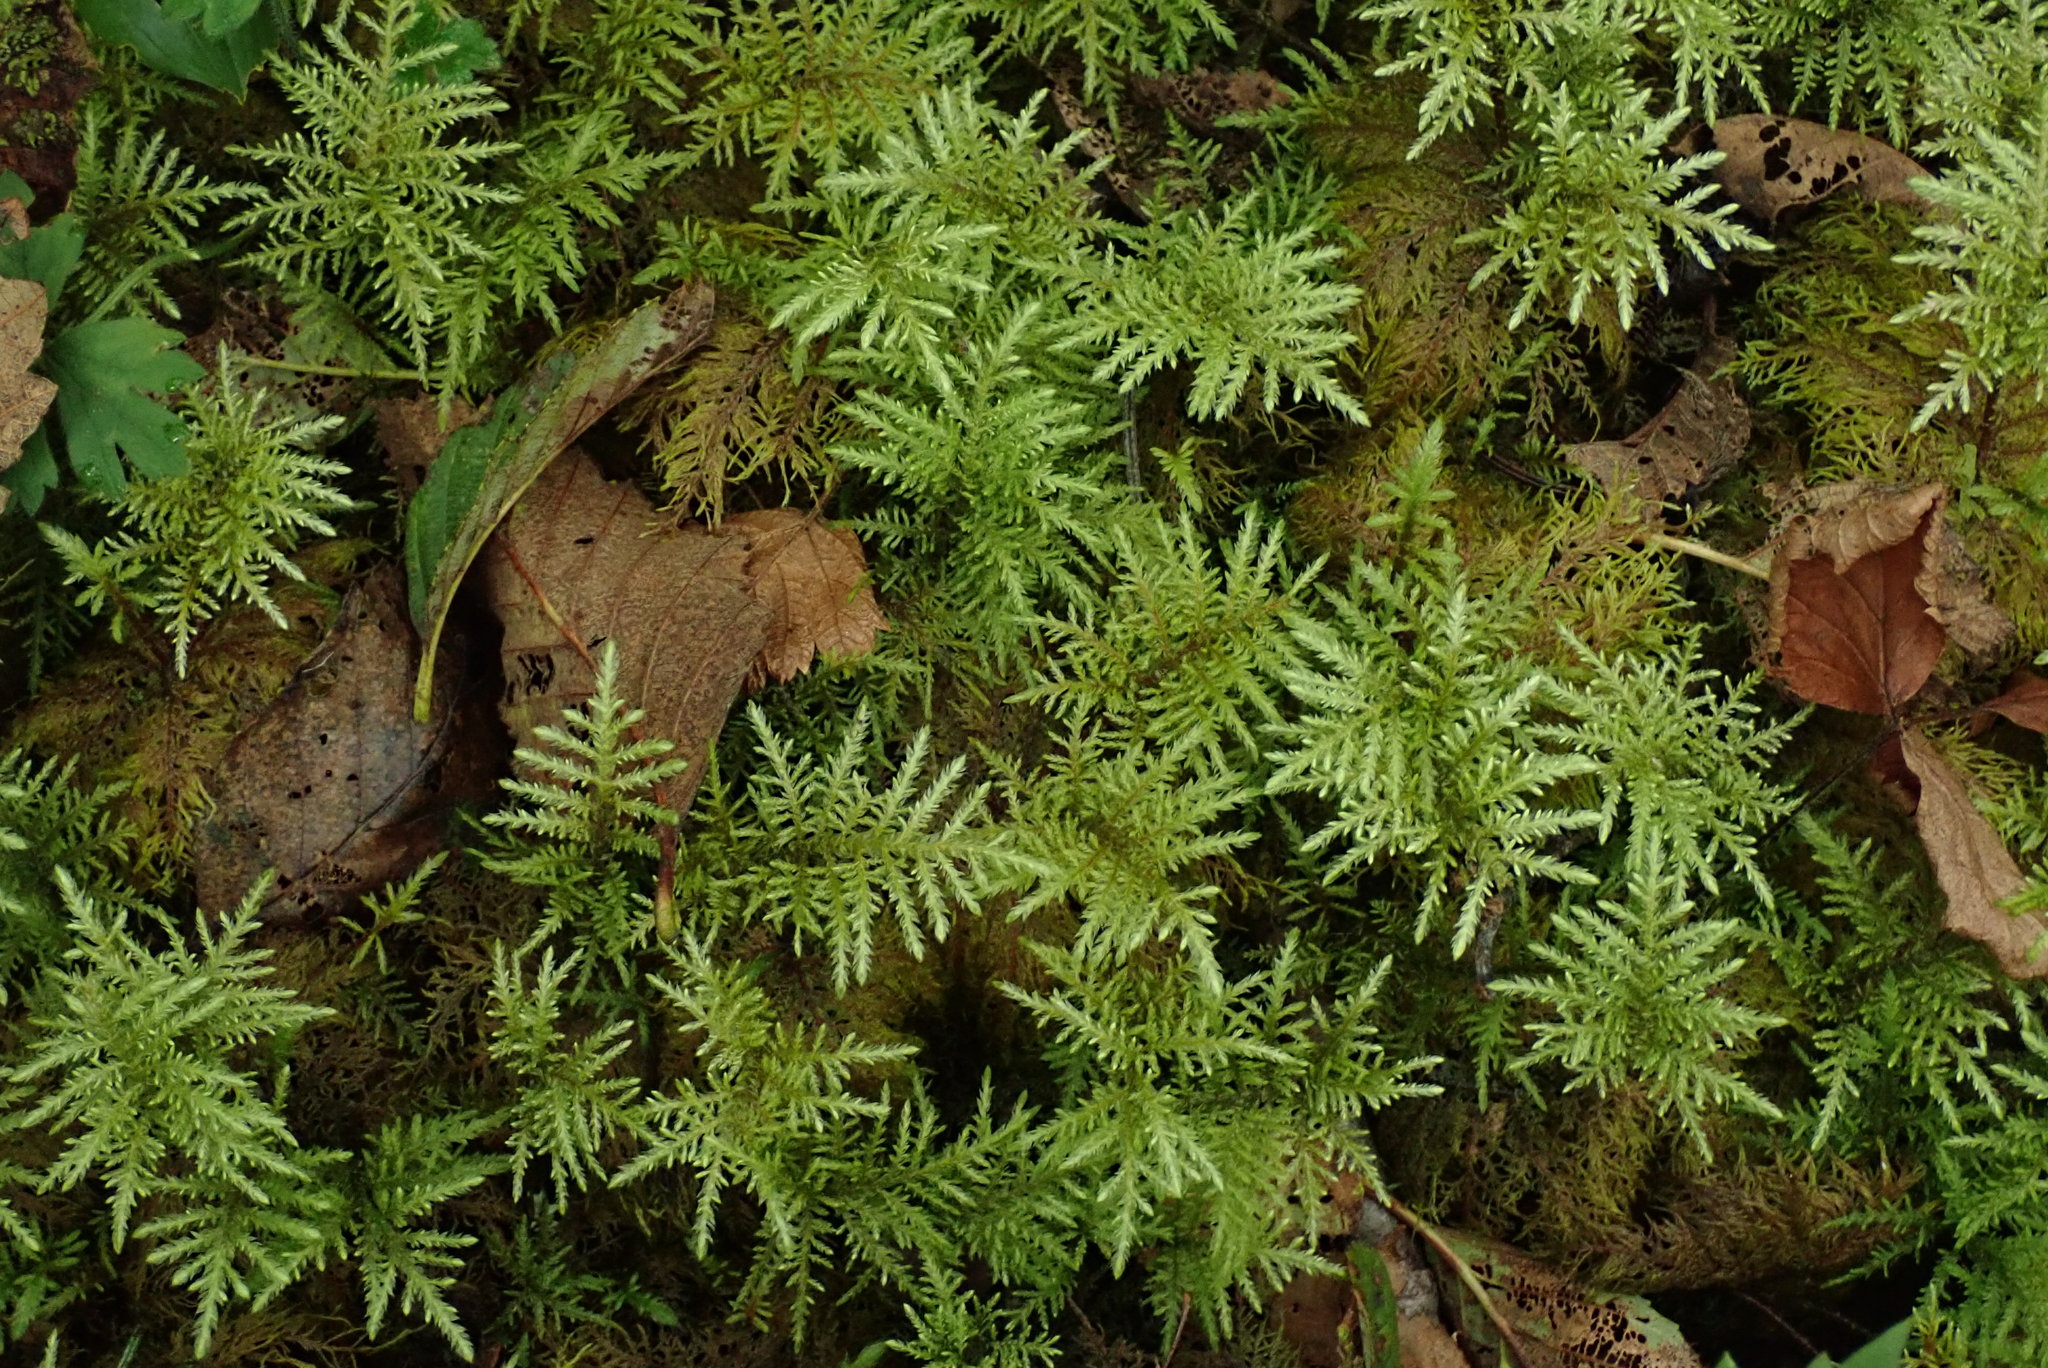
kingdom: Plantae
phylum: Bryophyta
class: Bryopsida
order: Hypnales
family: Hylocomiaceae
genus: Hylocomium
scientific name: Hylocomium splendens
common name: Stairstep moss
